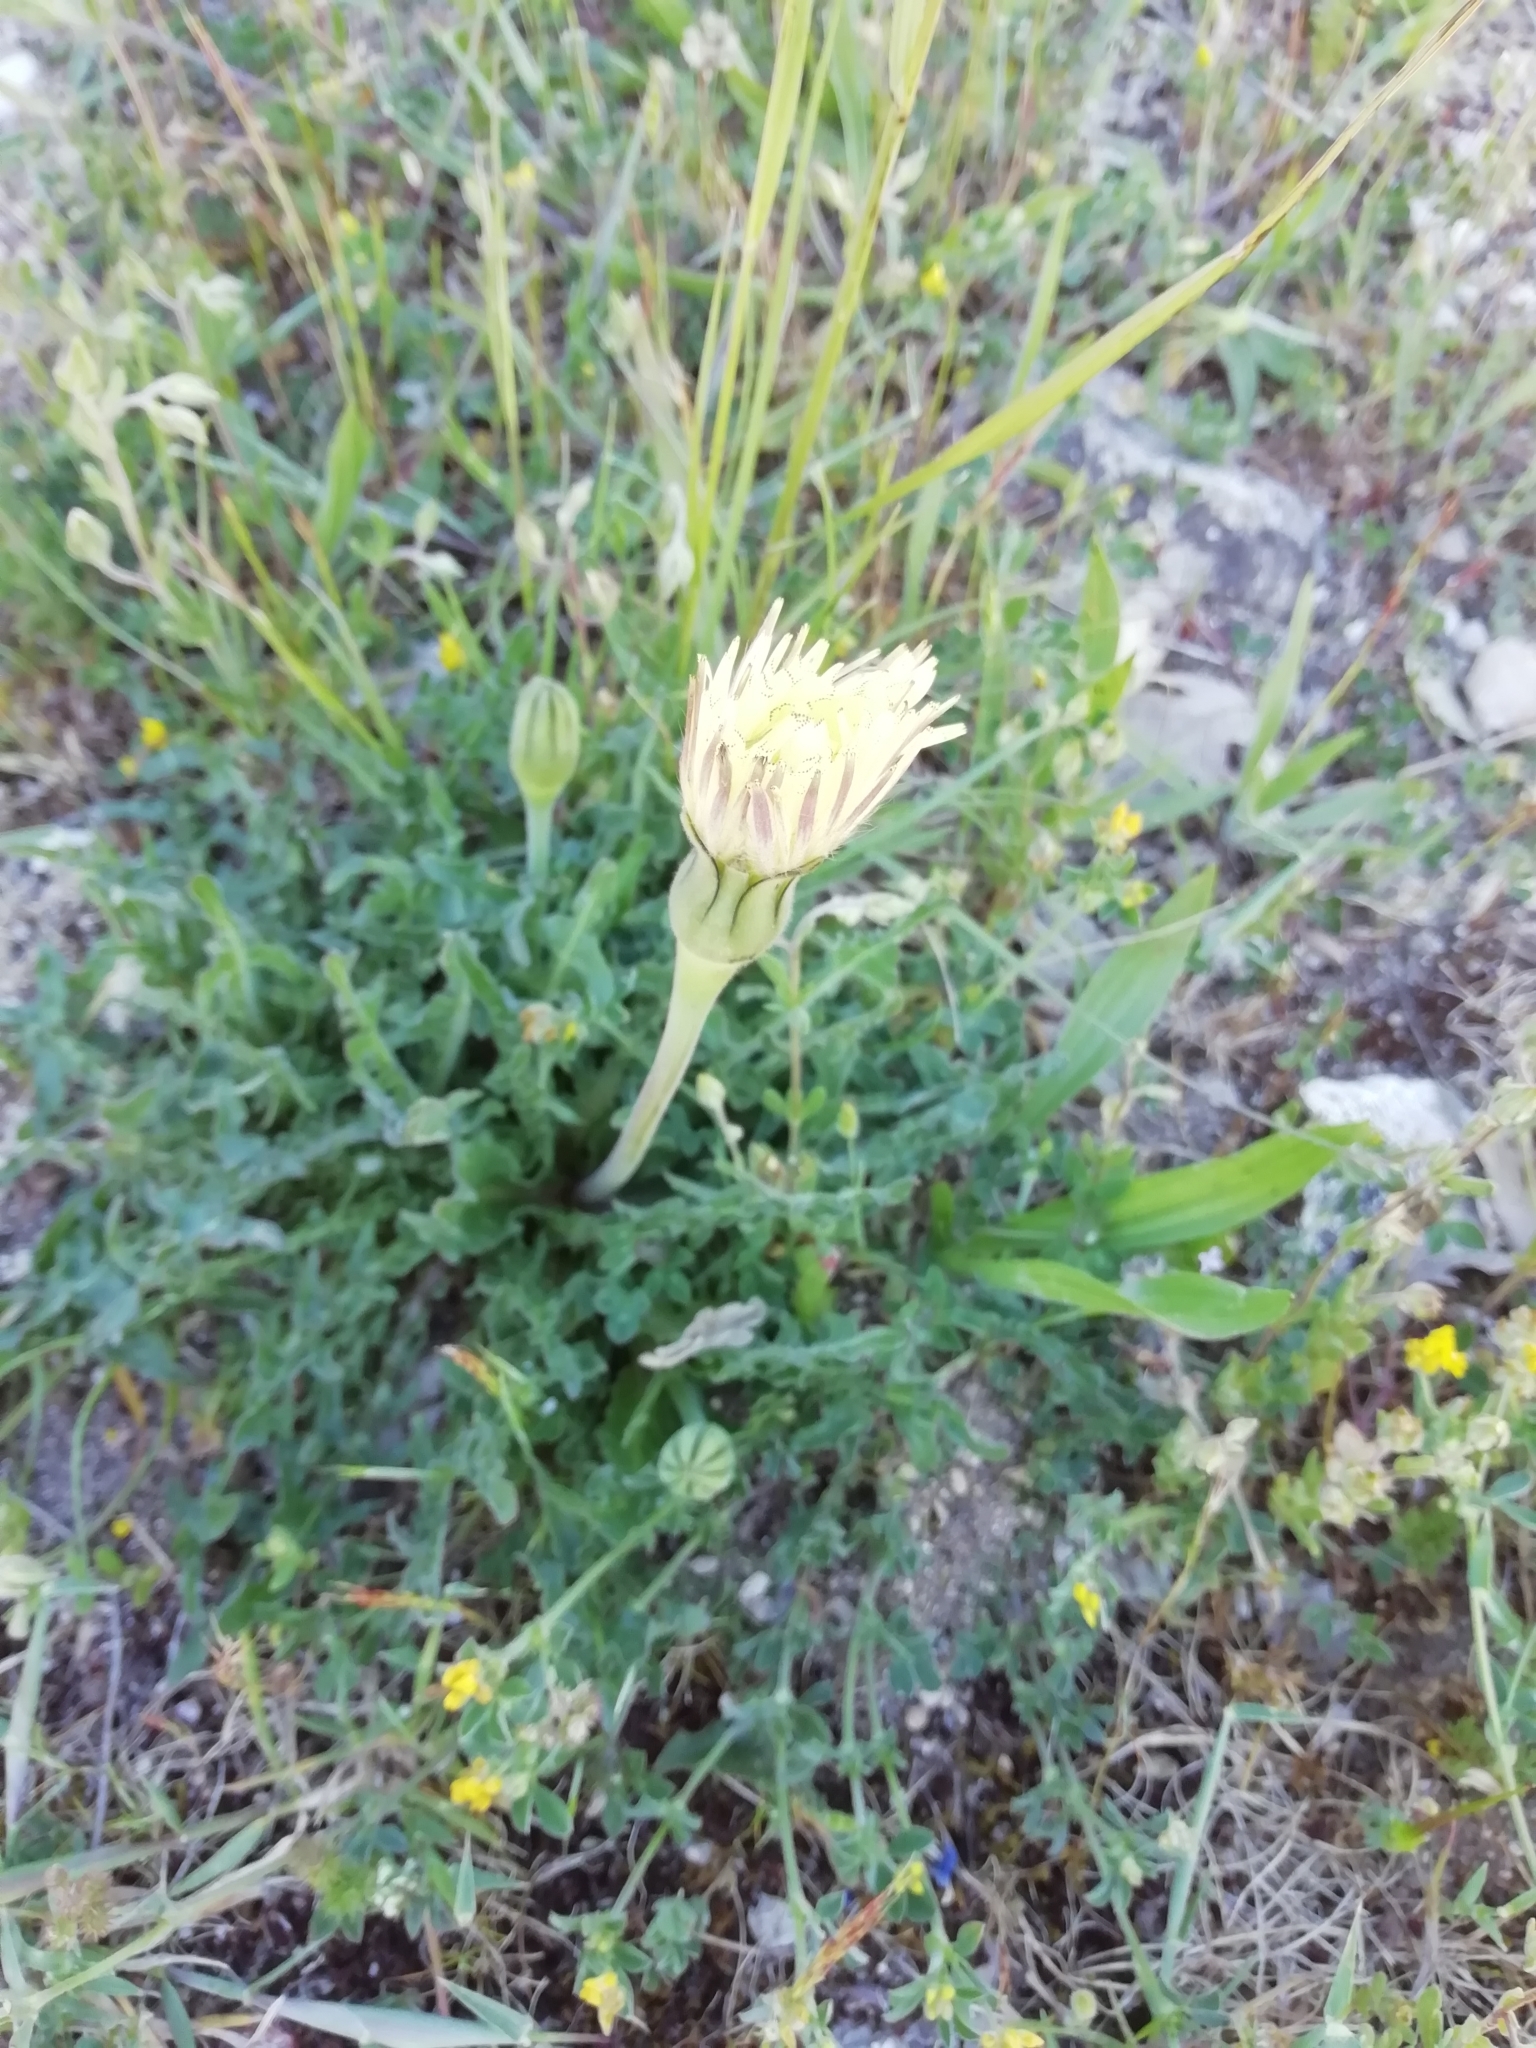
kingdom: Plantae
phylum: Tracheophyta
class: Magnoliopsida
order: Asterales
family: Asteraceae
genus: Urospermum
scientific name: Urospermum dalechampii
